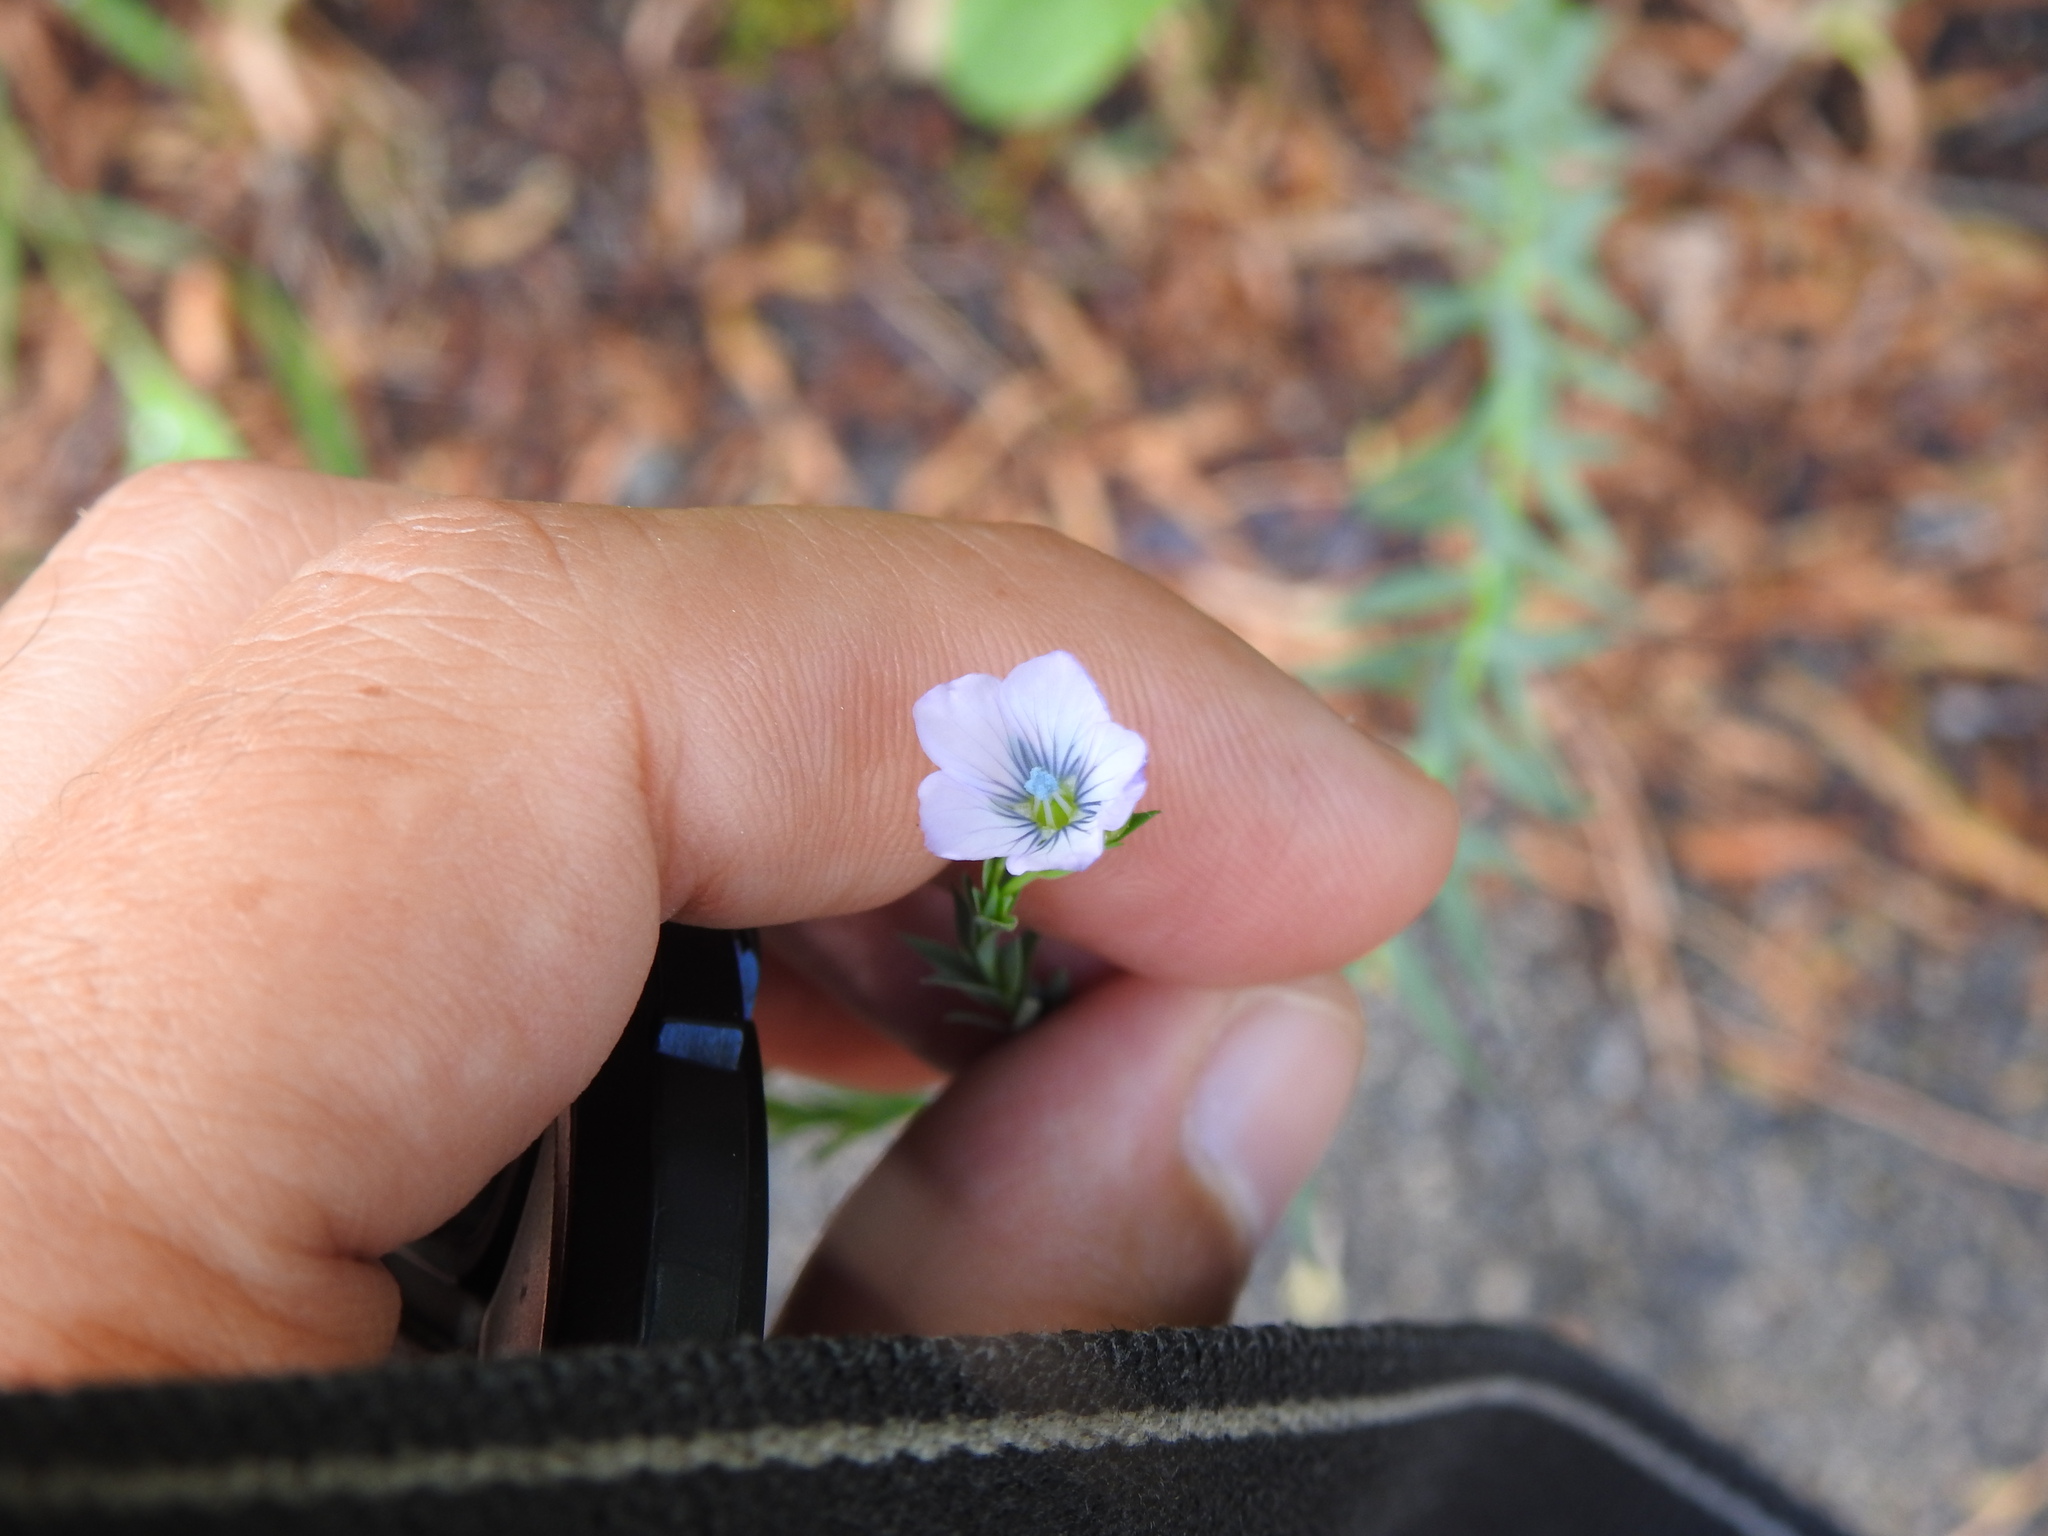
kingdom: Plantae
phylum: Tracheophyta
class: Magnoliopsida
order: Malpighiales
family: Linaceae
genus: Linum
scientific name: Linum bienne
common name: Pale flax
